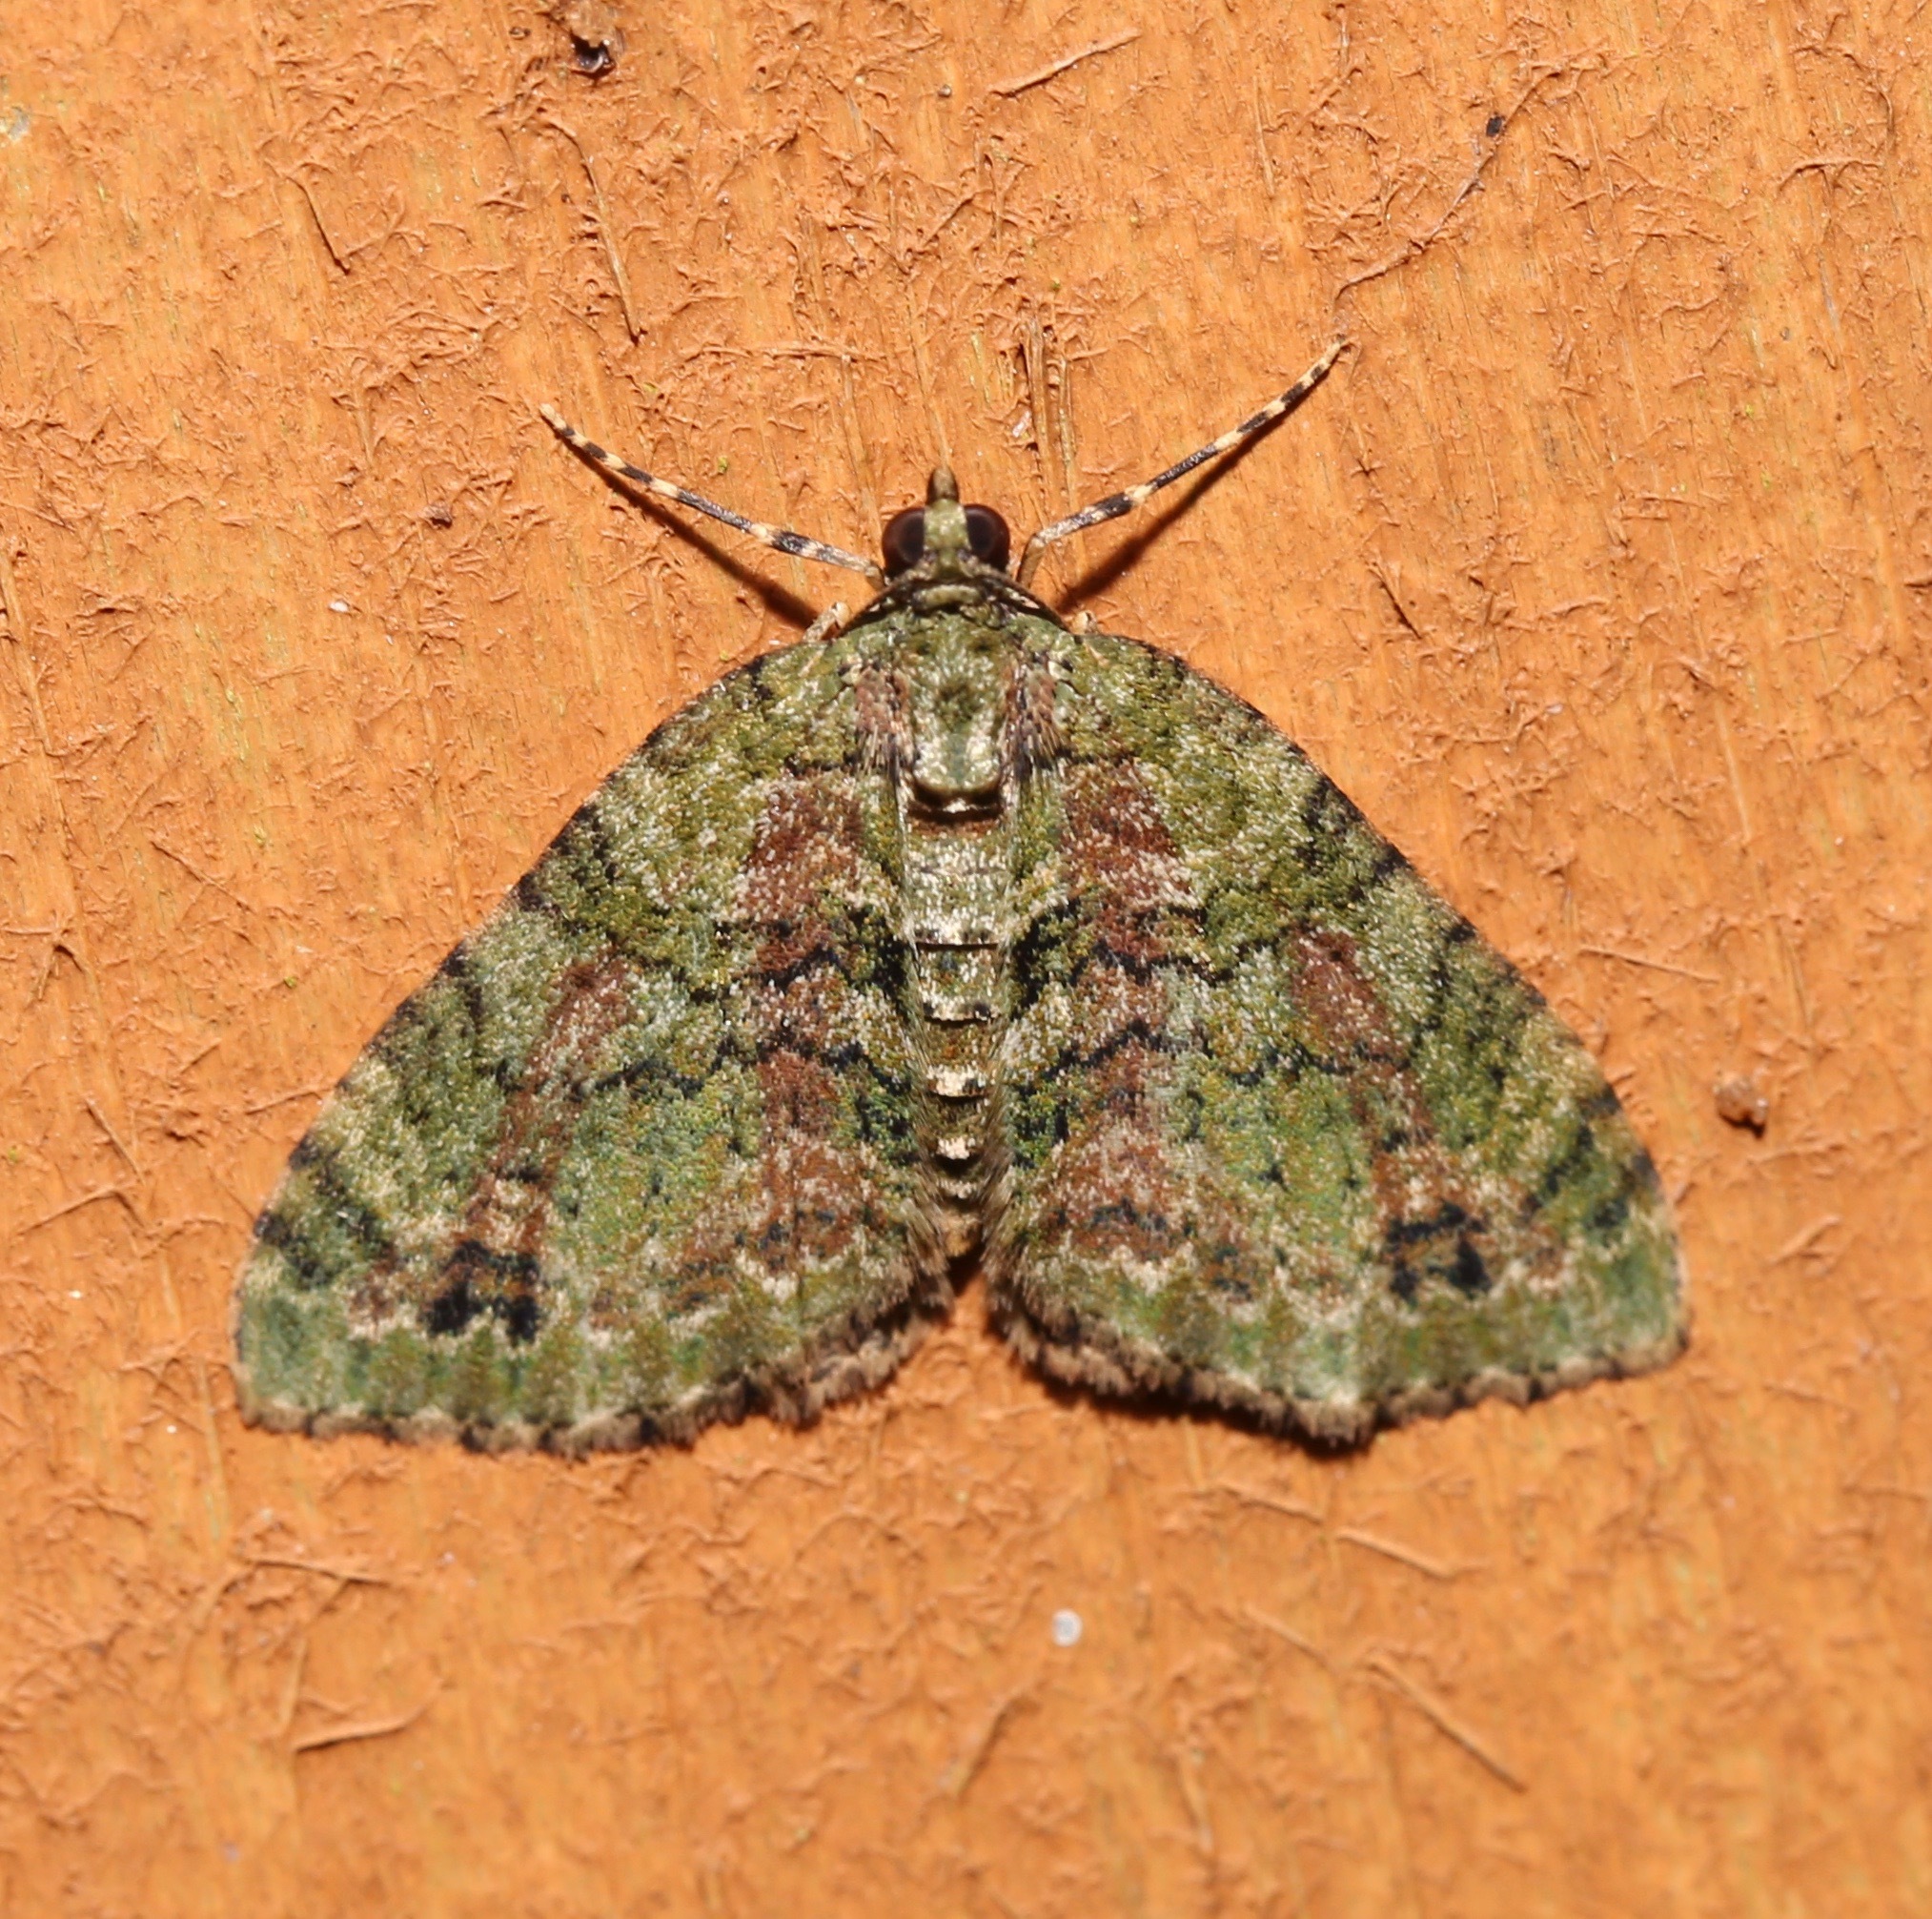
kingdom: Animalia
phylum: Arthropoda
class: Insecta
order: Lepidoptera
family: Geometridae
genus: Hammaptera
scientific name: Hammaptera parinotata
